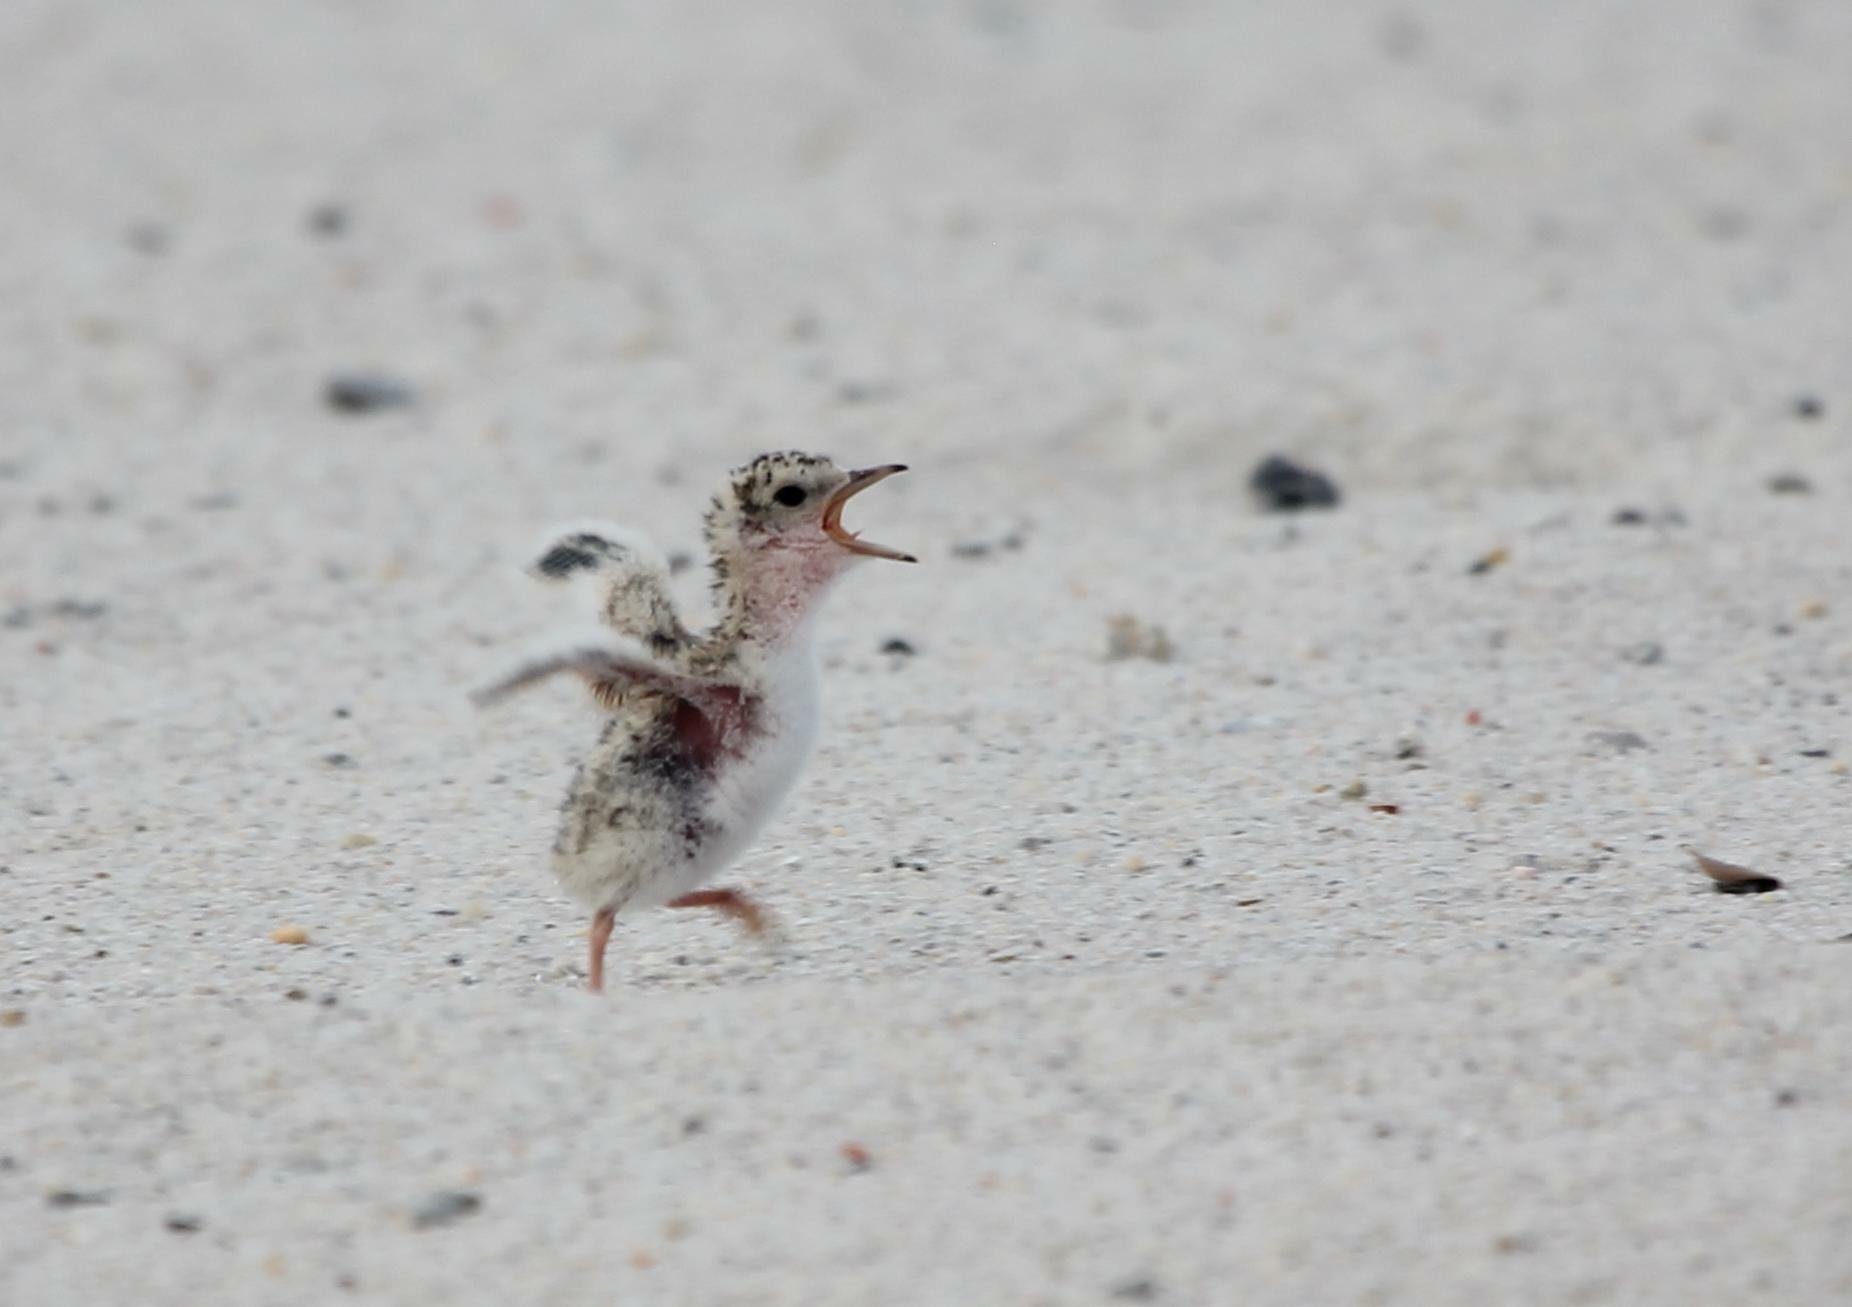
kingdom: Animalia
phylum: Chordata
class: Aves
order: Charadriiformes
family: Laridae
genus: Sternula
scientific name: Sternula antillarum
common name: Least tern
